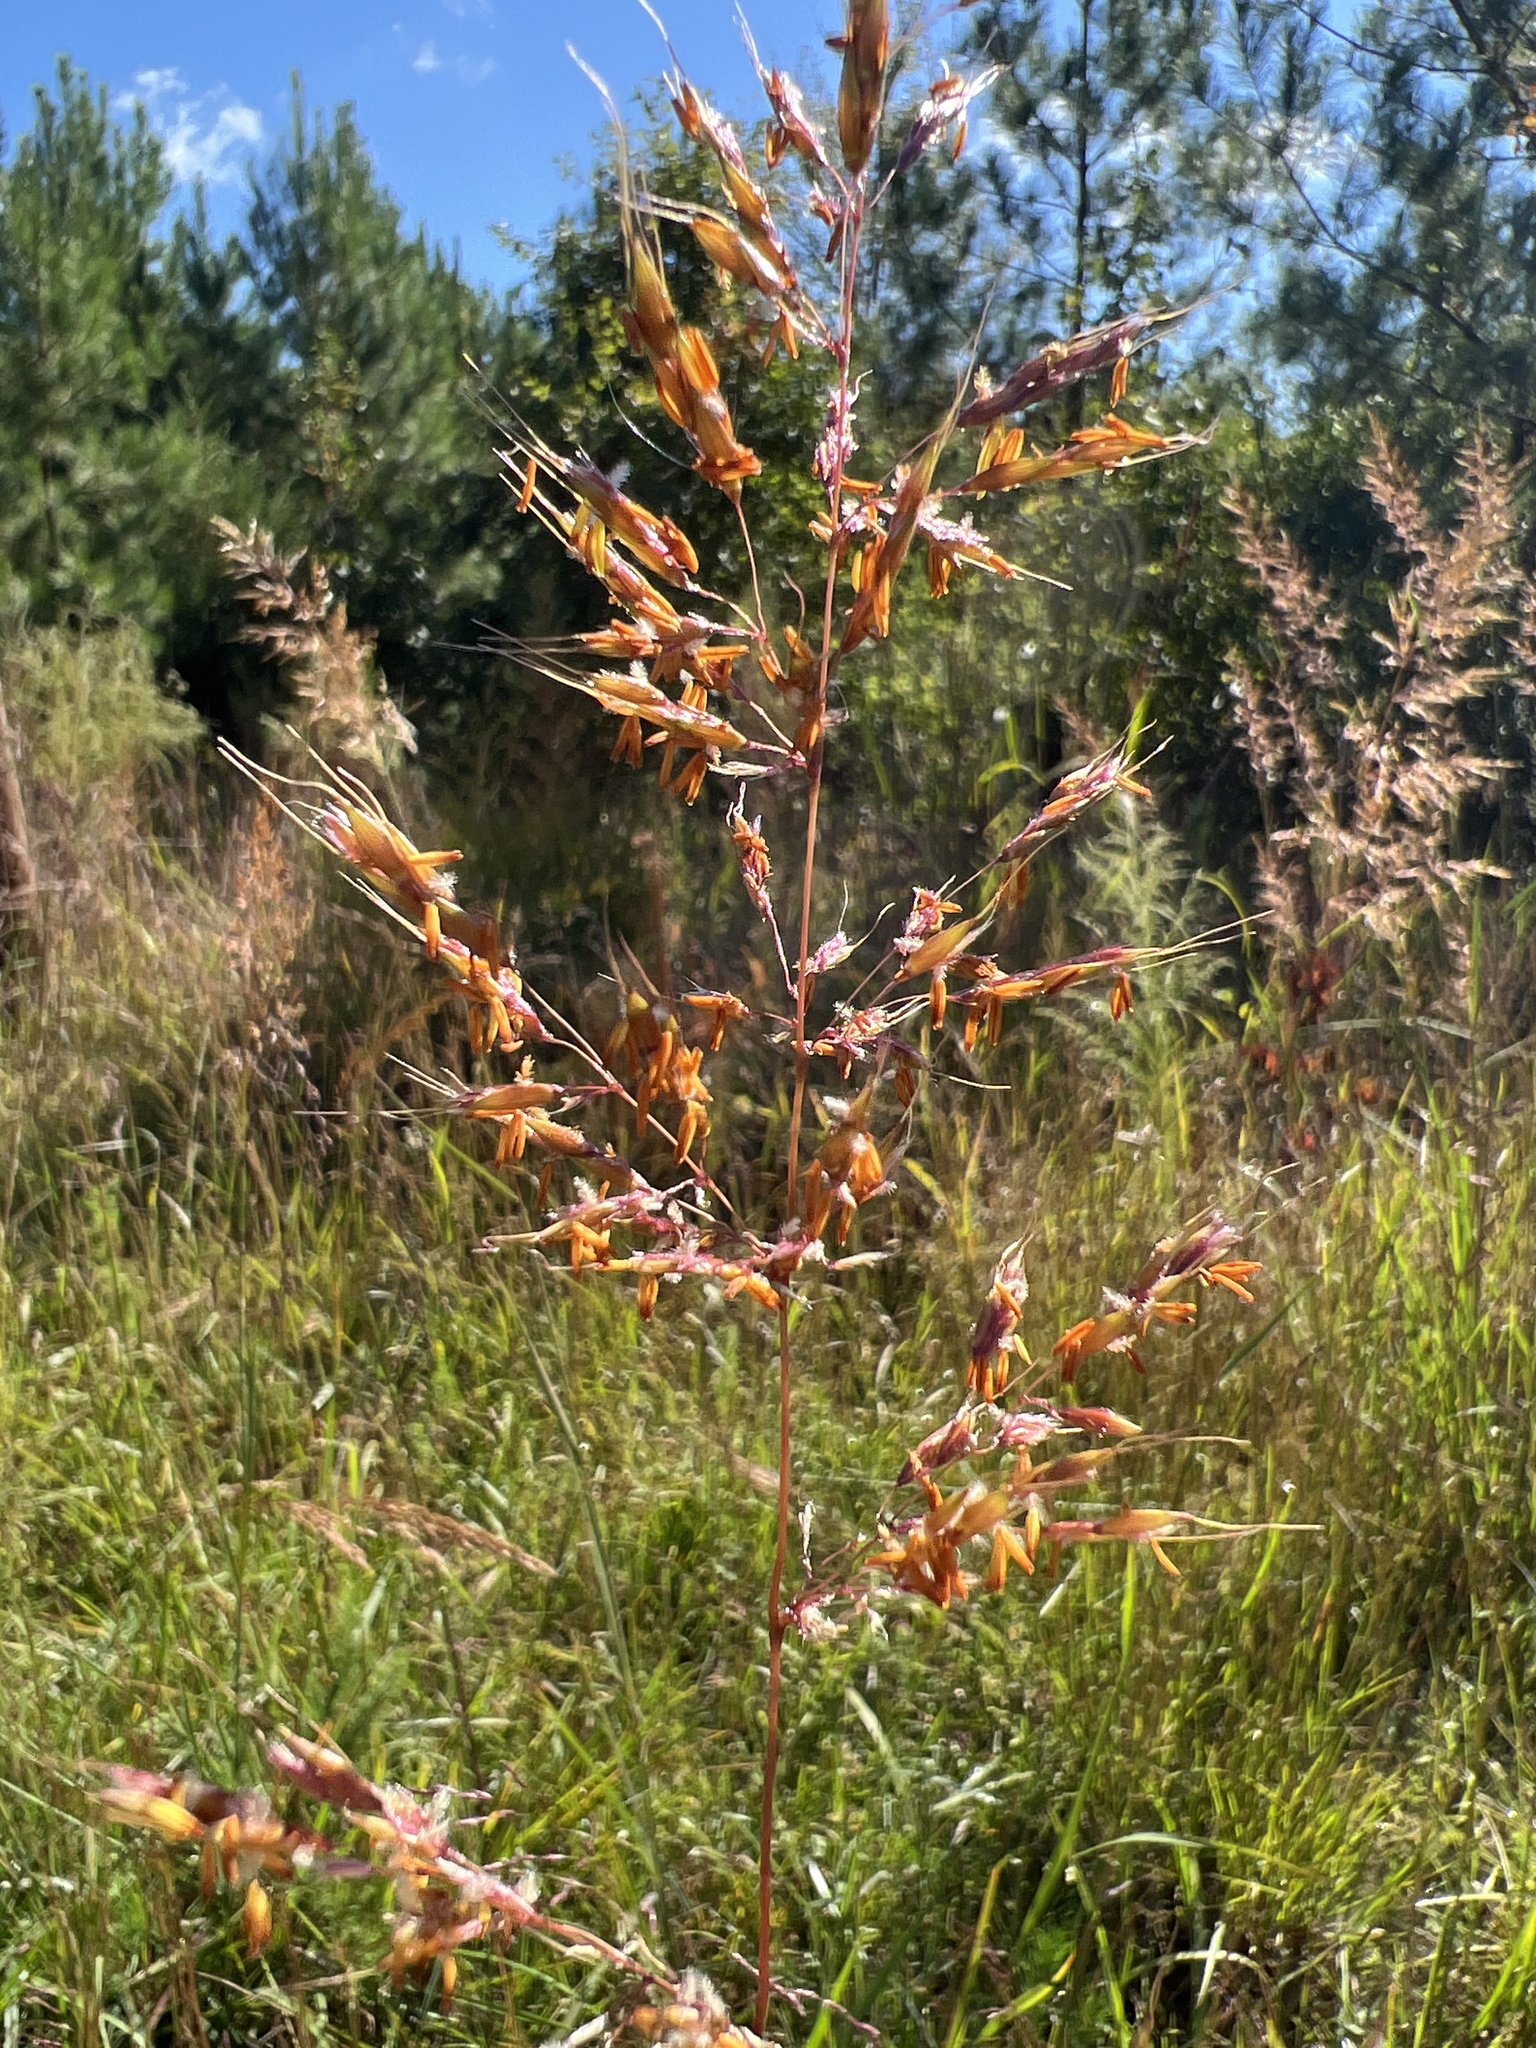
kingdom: Plantae
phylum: Tracheophyta
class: Liliopsida
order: Poales
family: Poaceae
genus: Sorghastrum
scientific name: Sorghastrum nutans
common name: Indian grass
